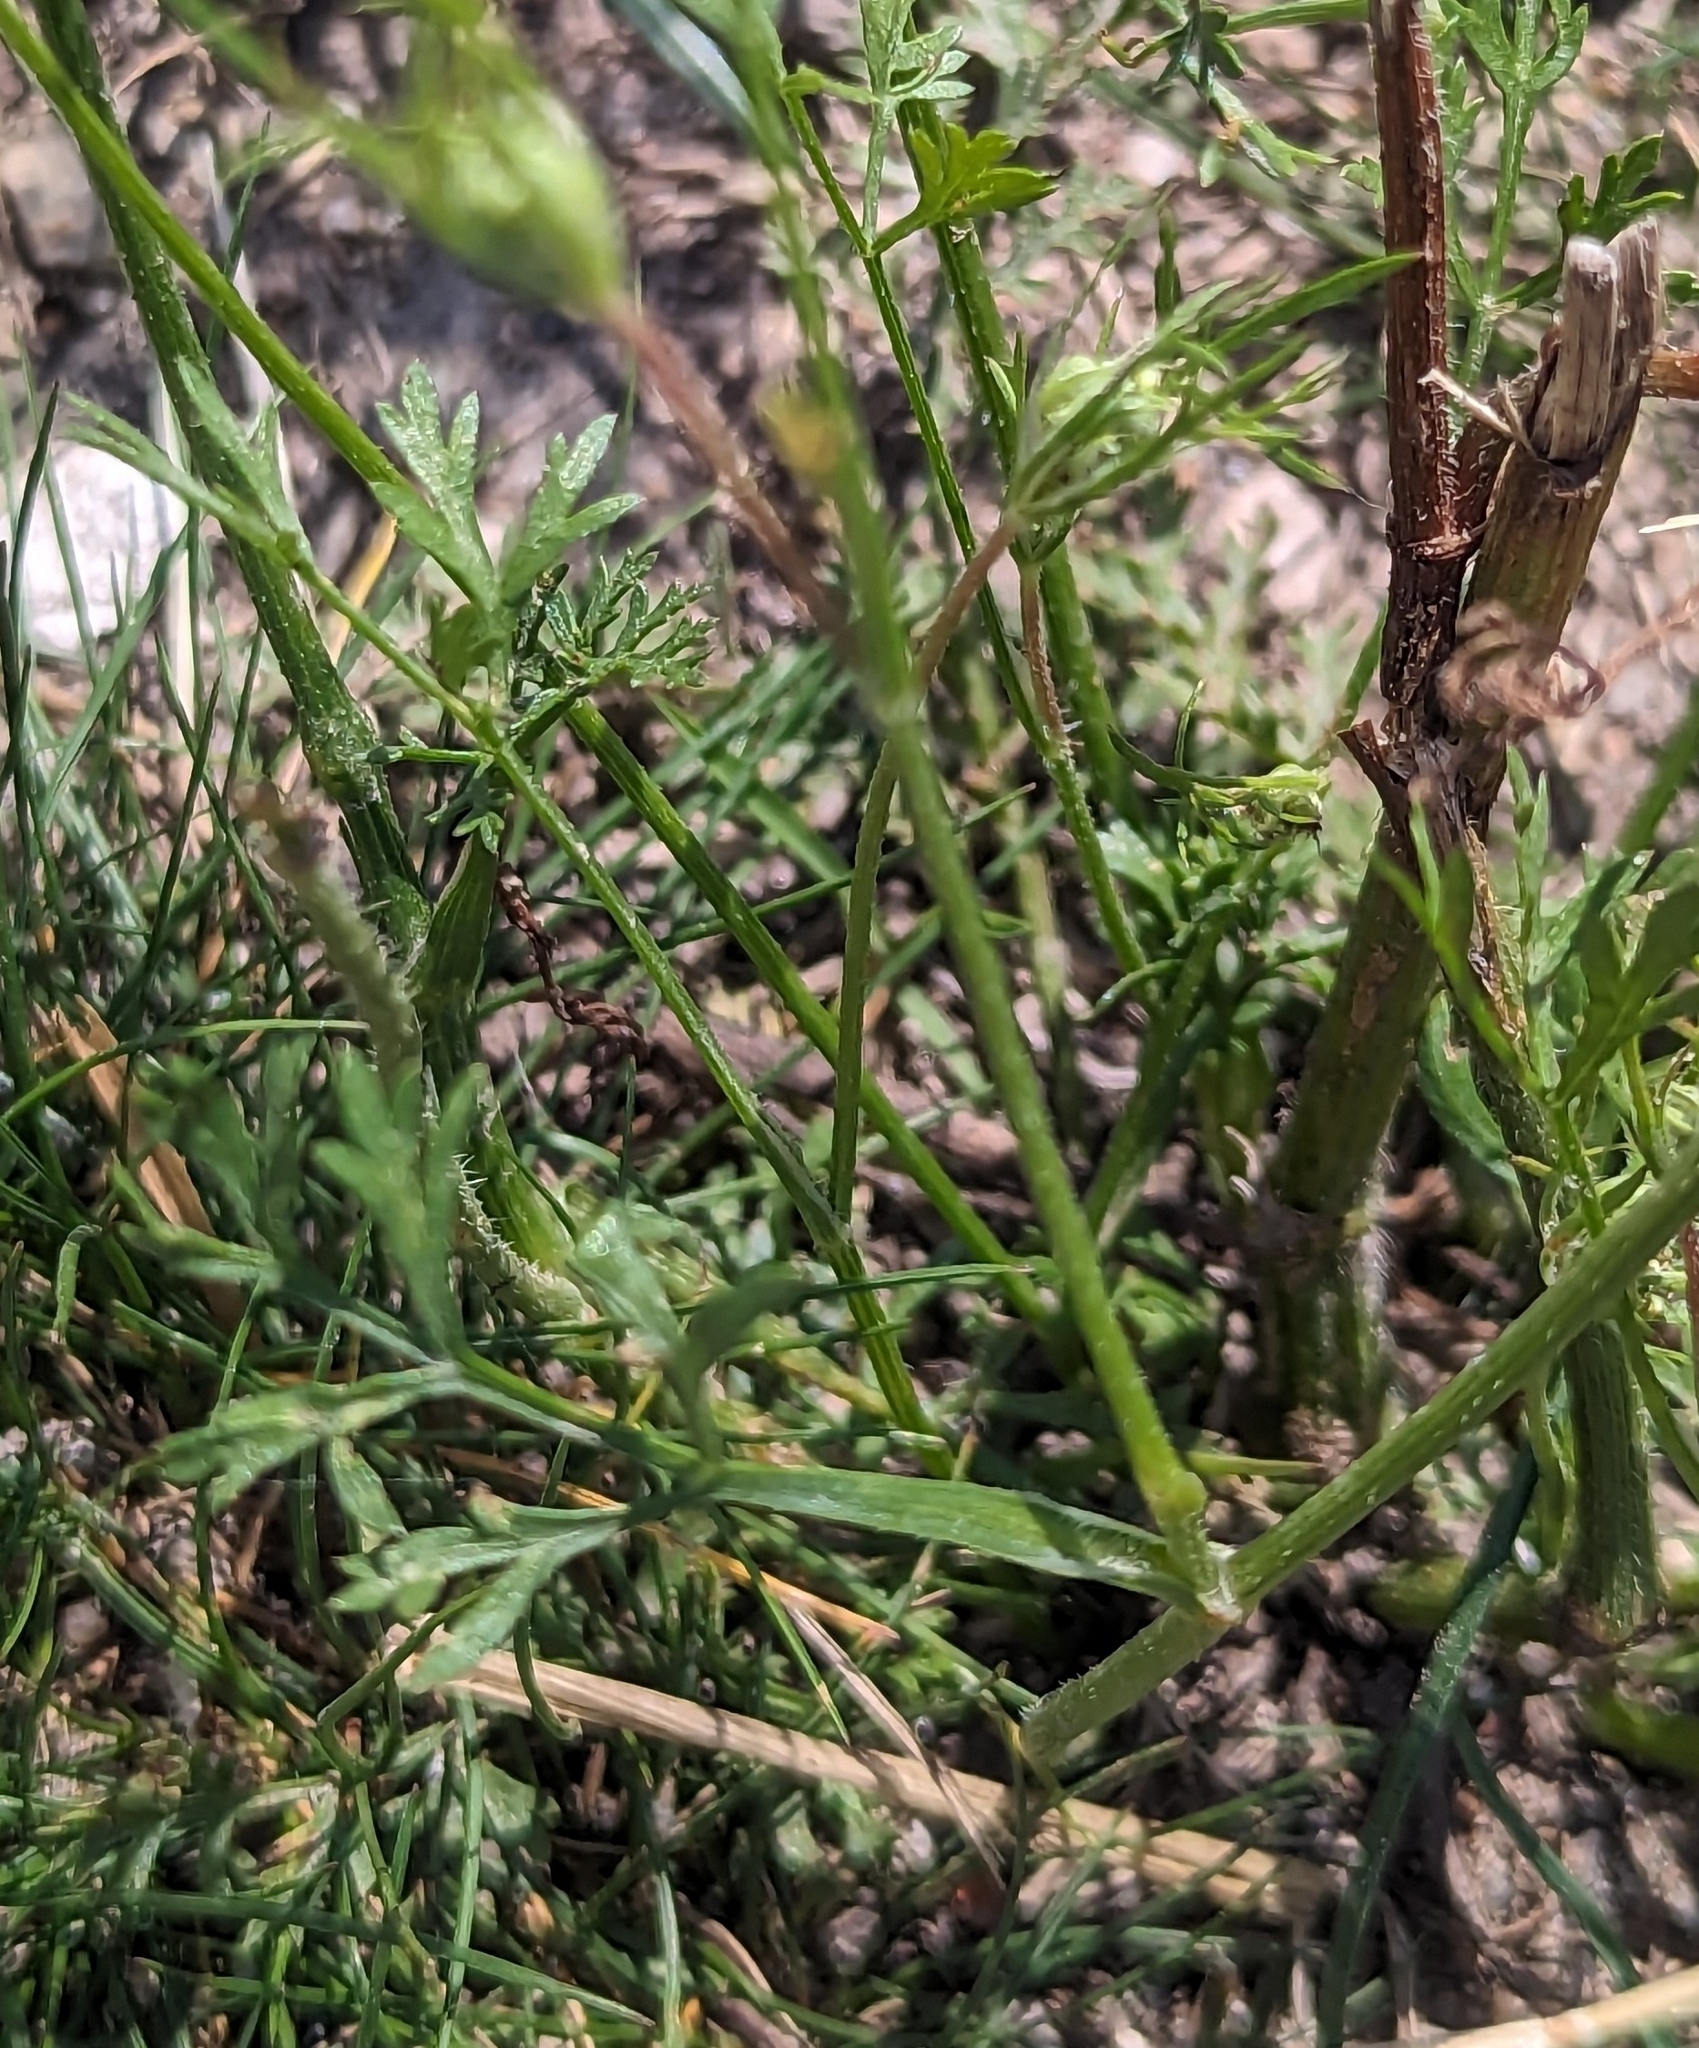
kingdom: Plantae
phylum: Tracheophyta
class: Magnoliopsida
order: Apiales
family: Apiaceae
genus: Daucus
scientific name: Daucus carota
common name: Wild carrot
